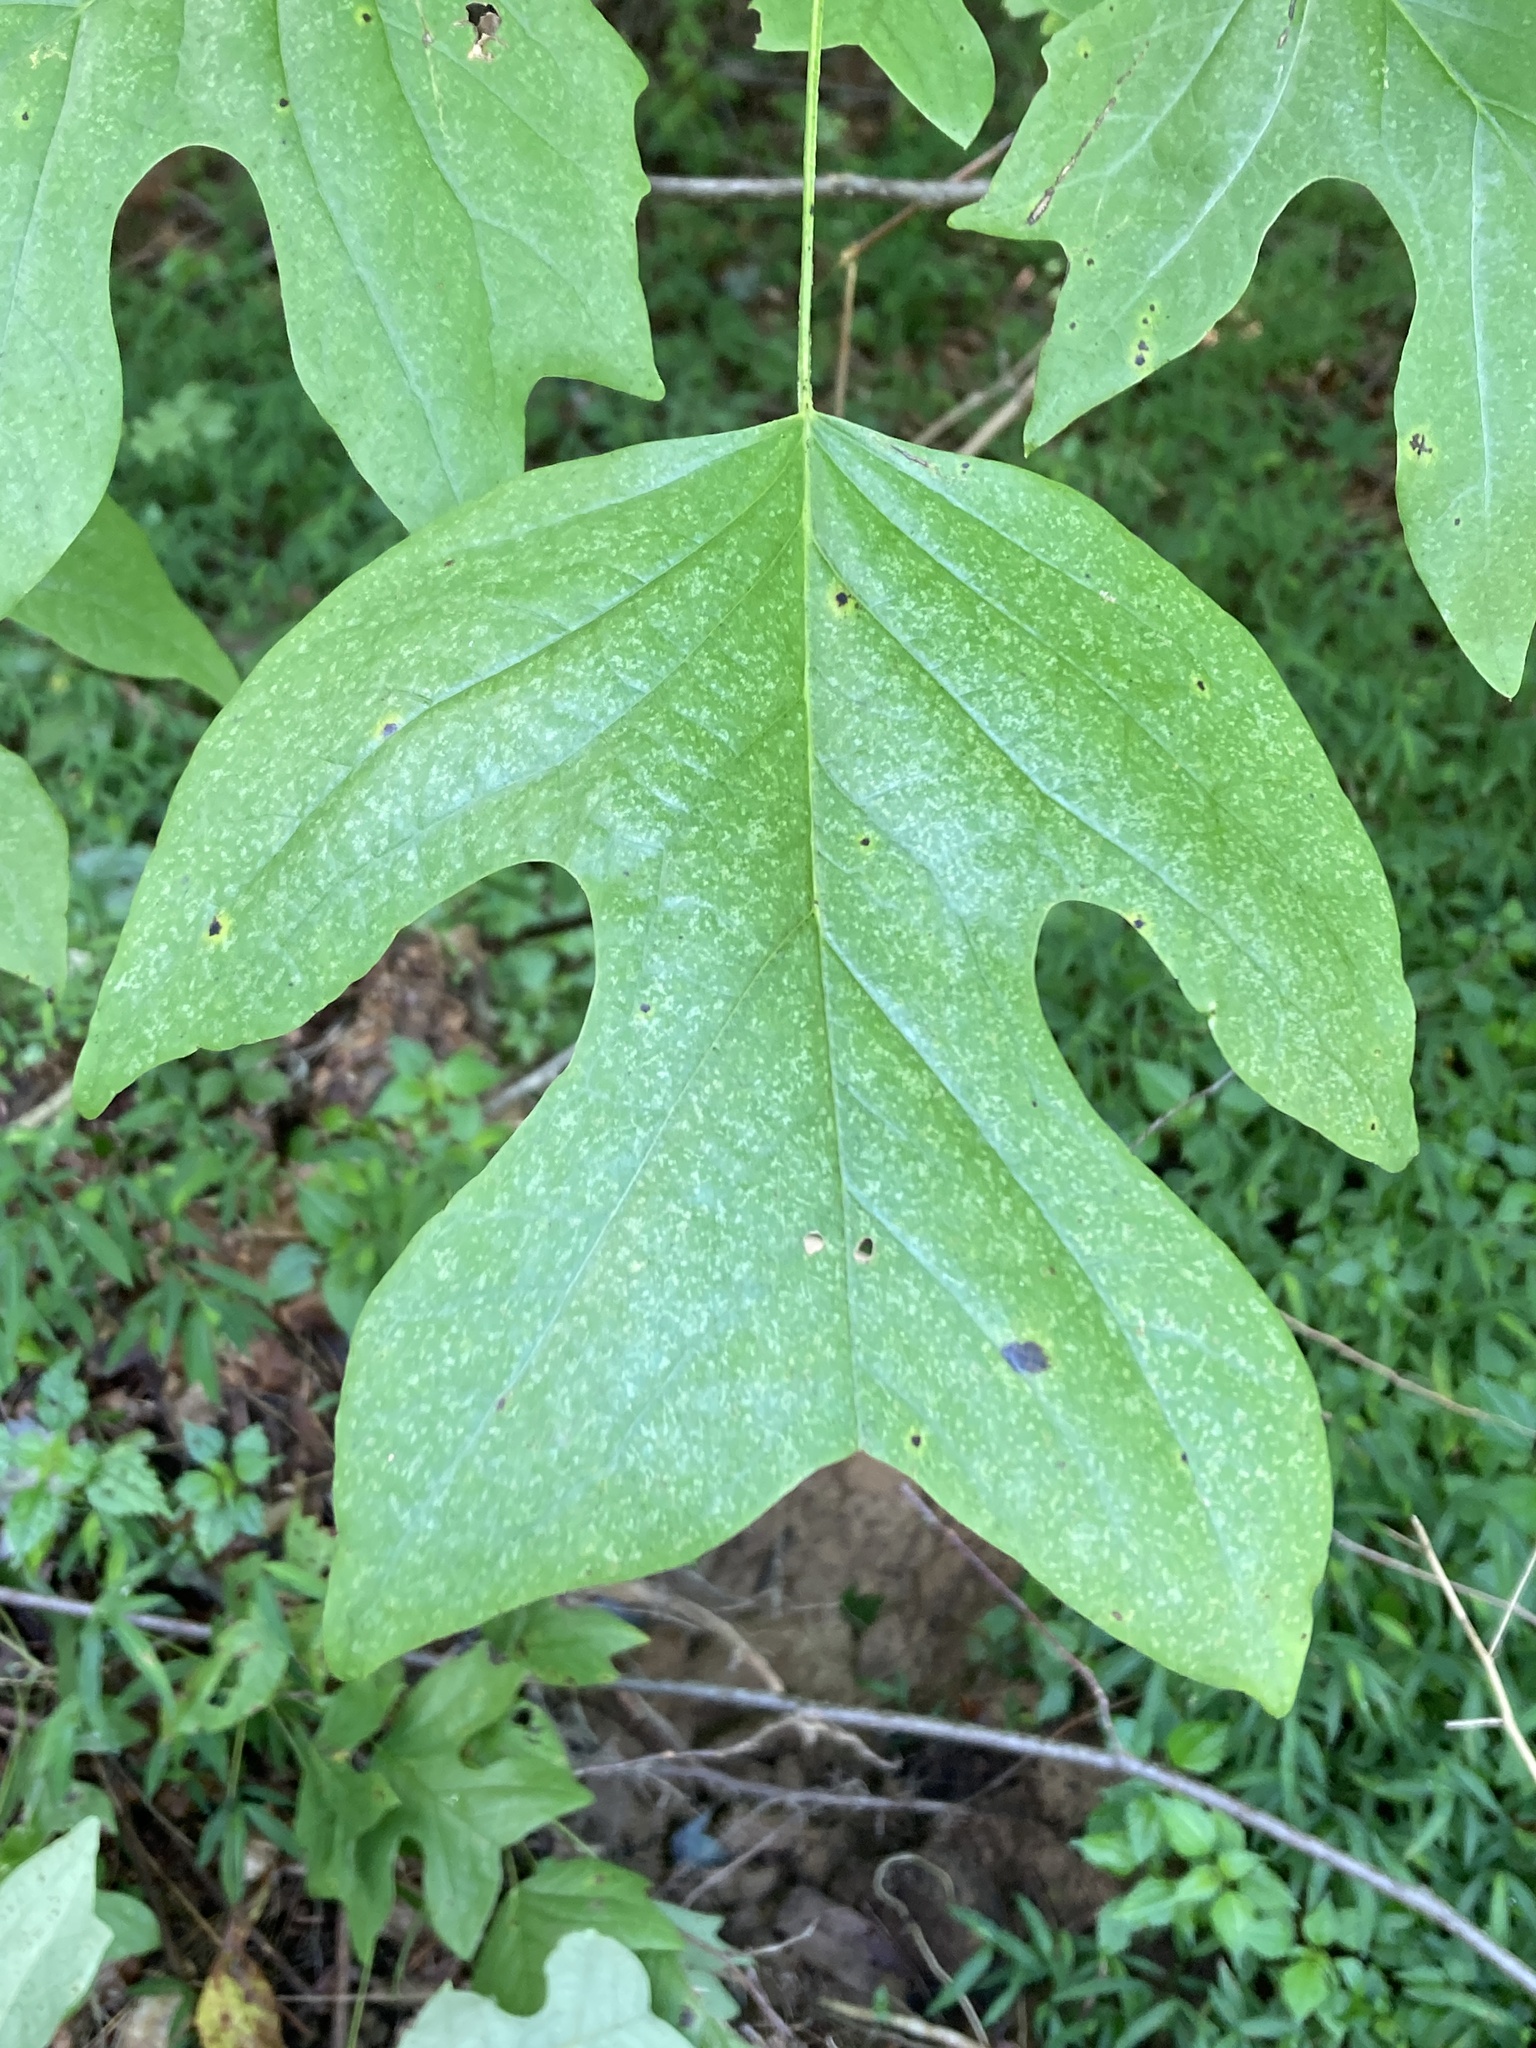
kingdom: Plantae
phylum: Tracheophyta
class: Magnoliopsida
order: Magnoliales
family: Magnoliaceae
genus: Liriodendron
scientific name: Liriodendron tulipifera
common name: Tulip tree
